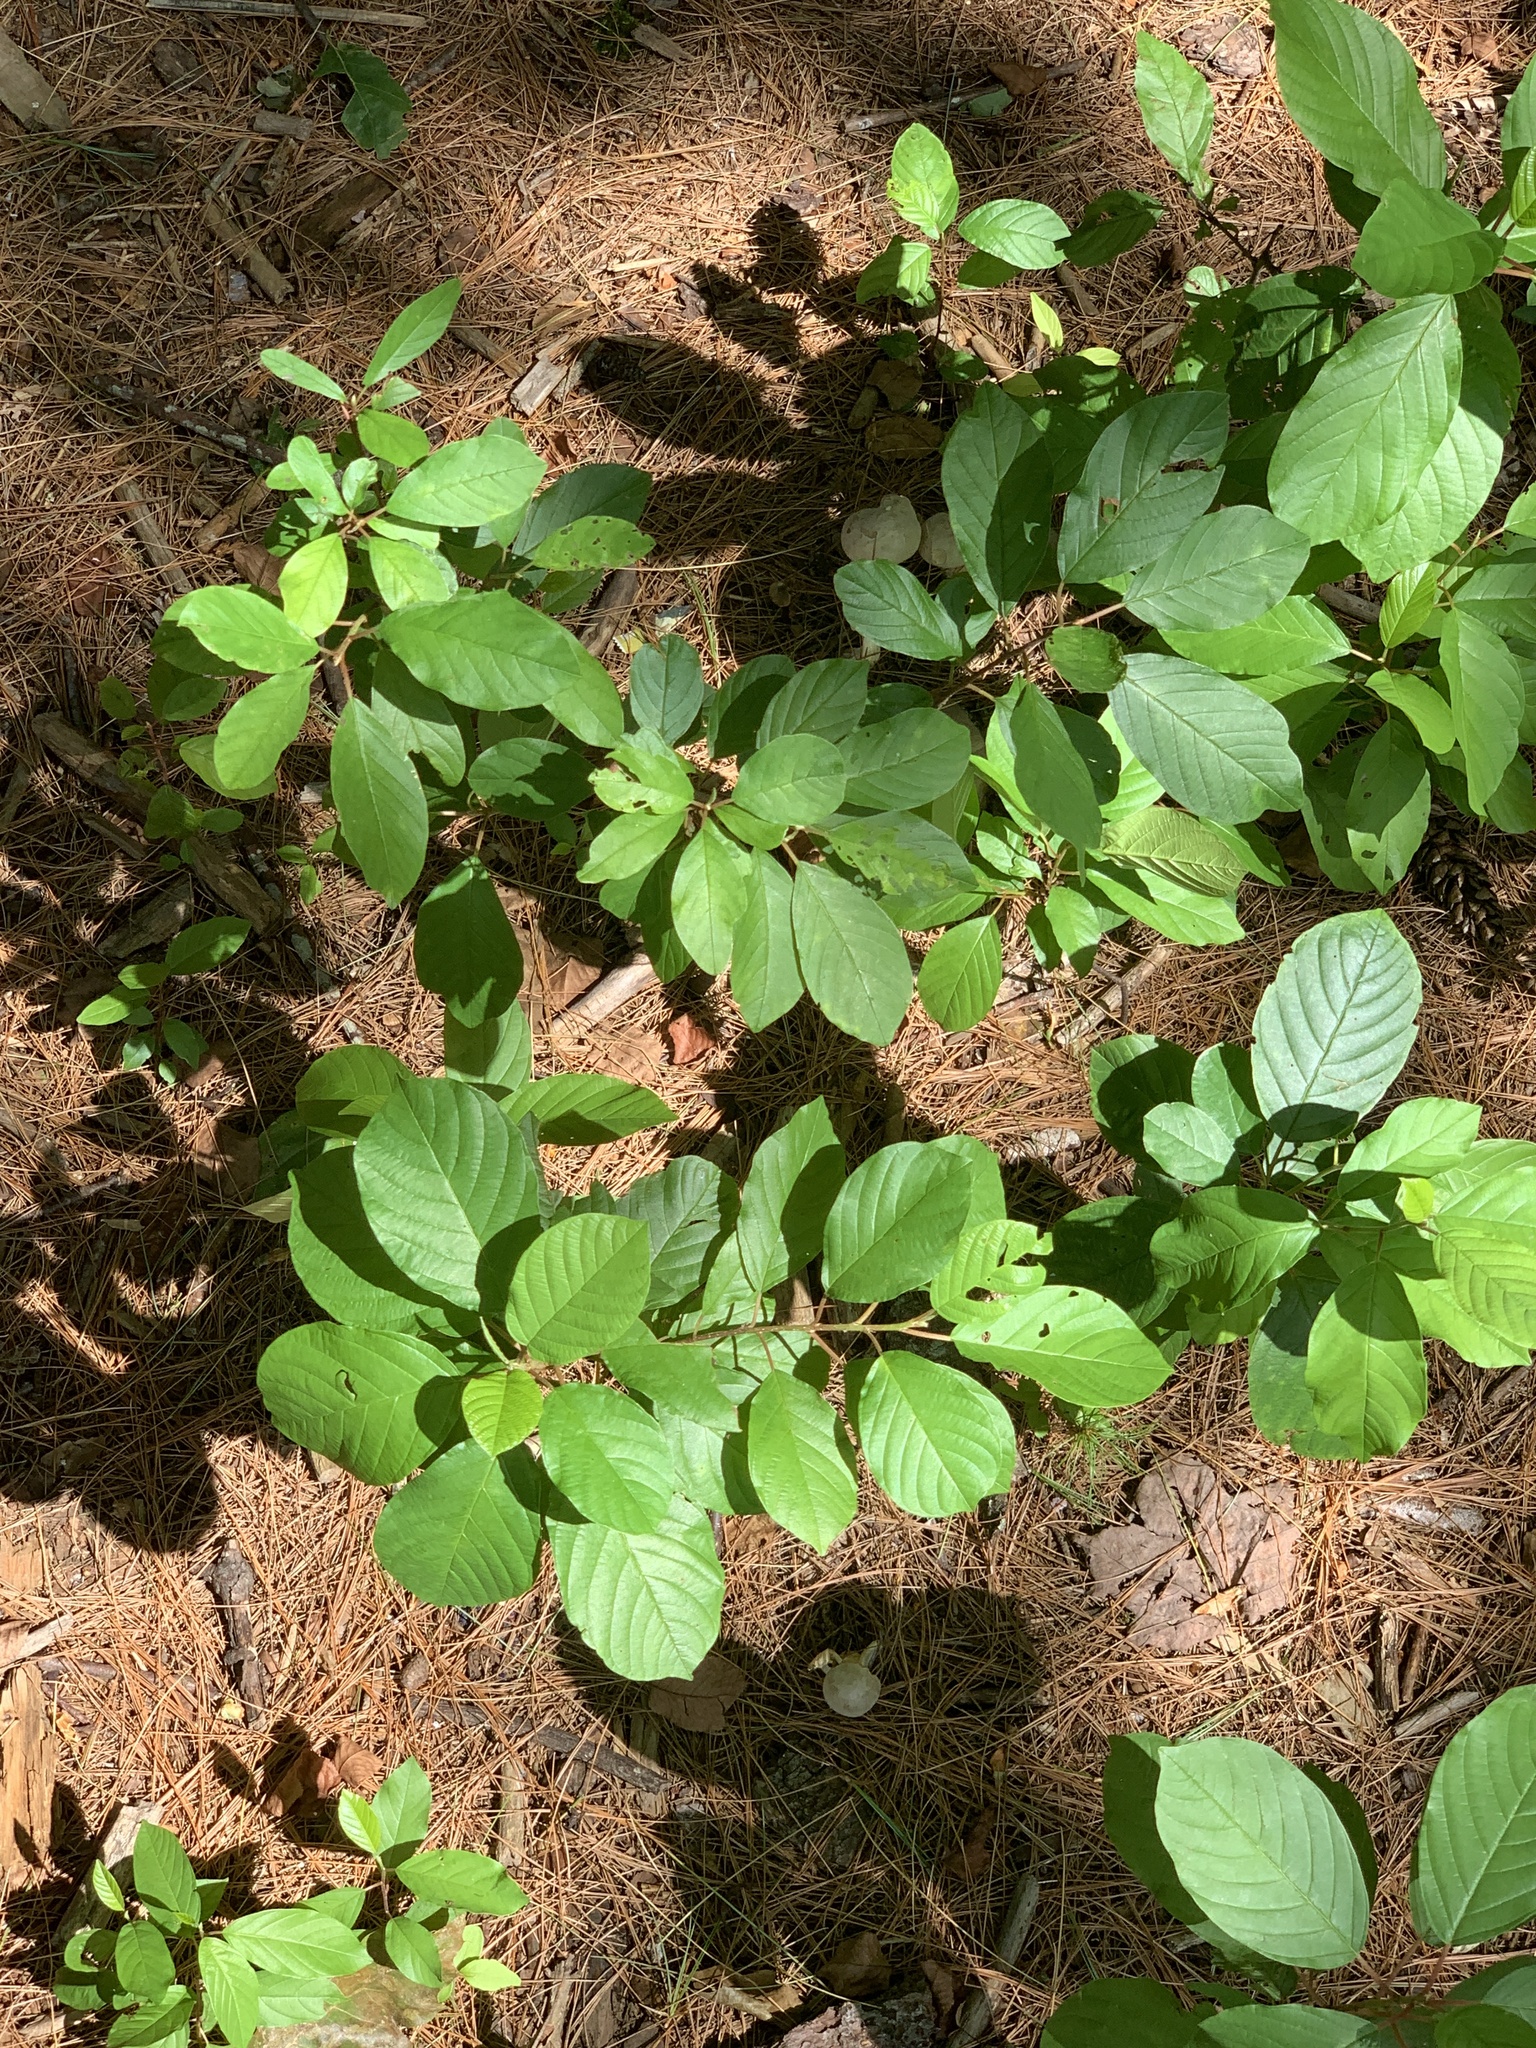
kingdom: Plantae
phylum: Tracheophyta
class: Magnoliopsida
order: Rosales
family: Rhamnaceae
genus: Frangula
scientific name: Frangula alnus
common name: Alder buckthorn
